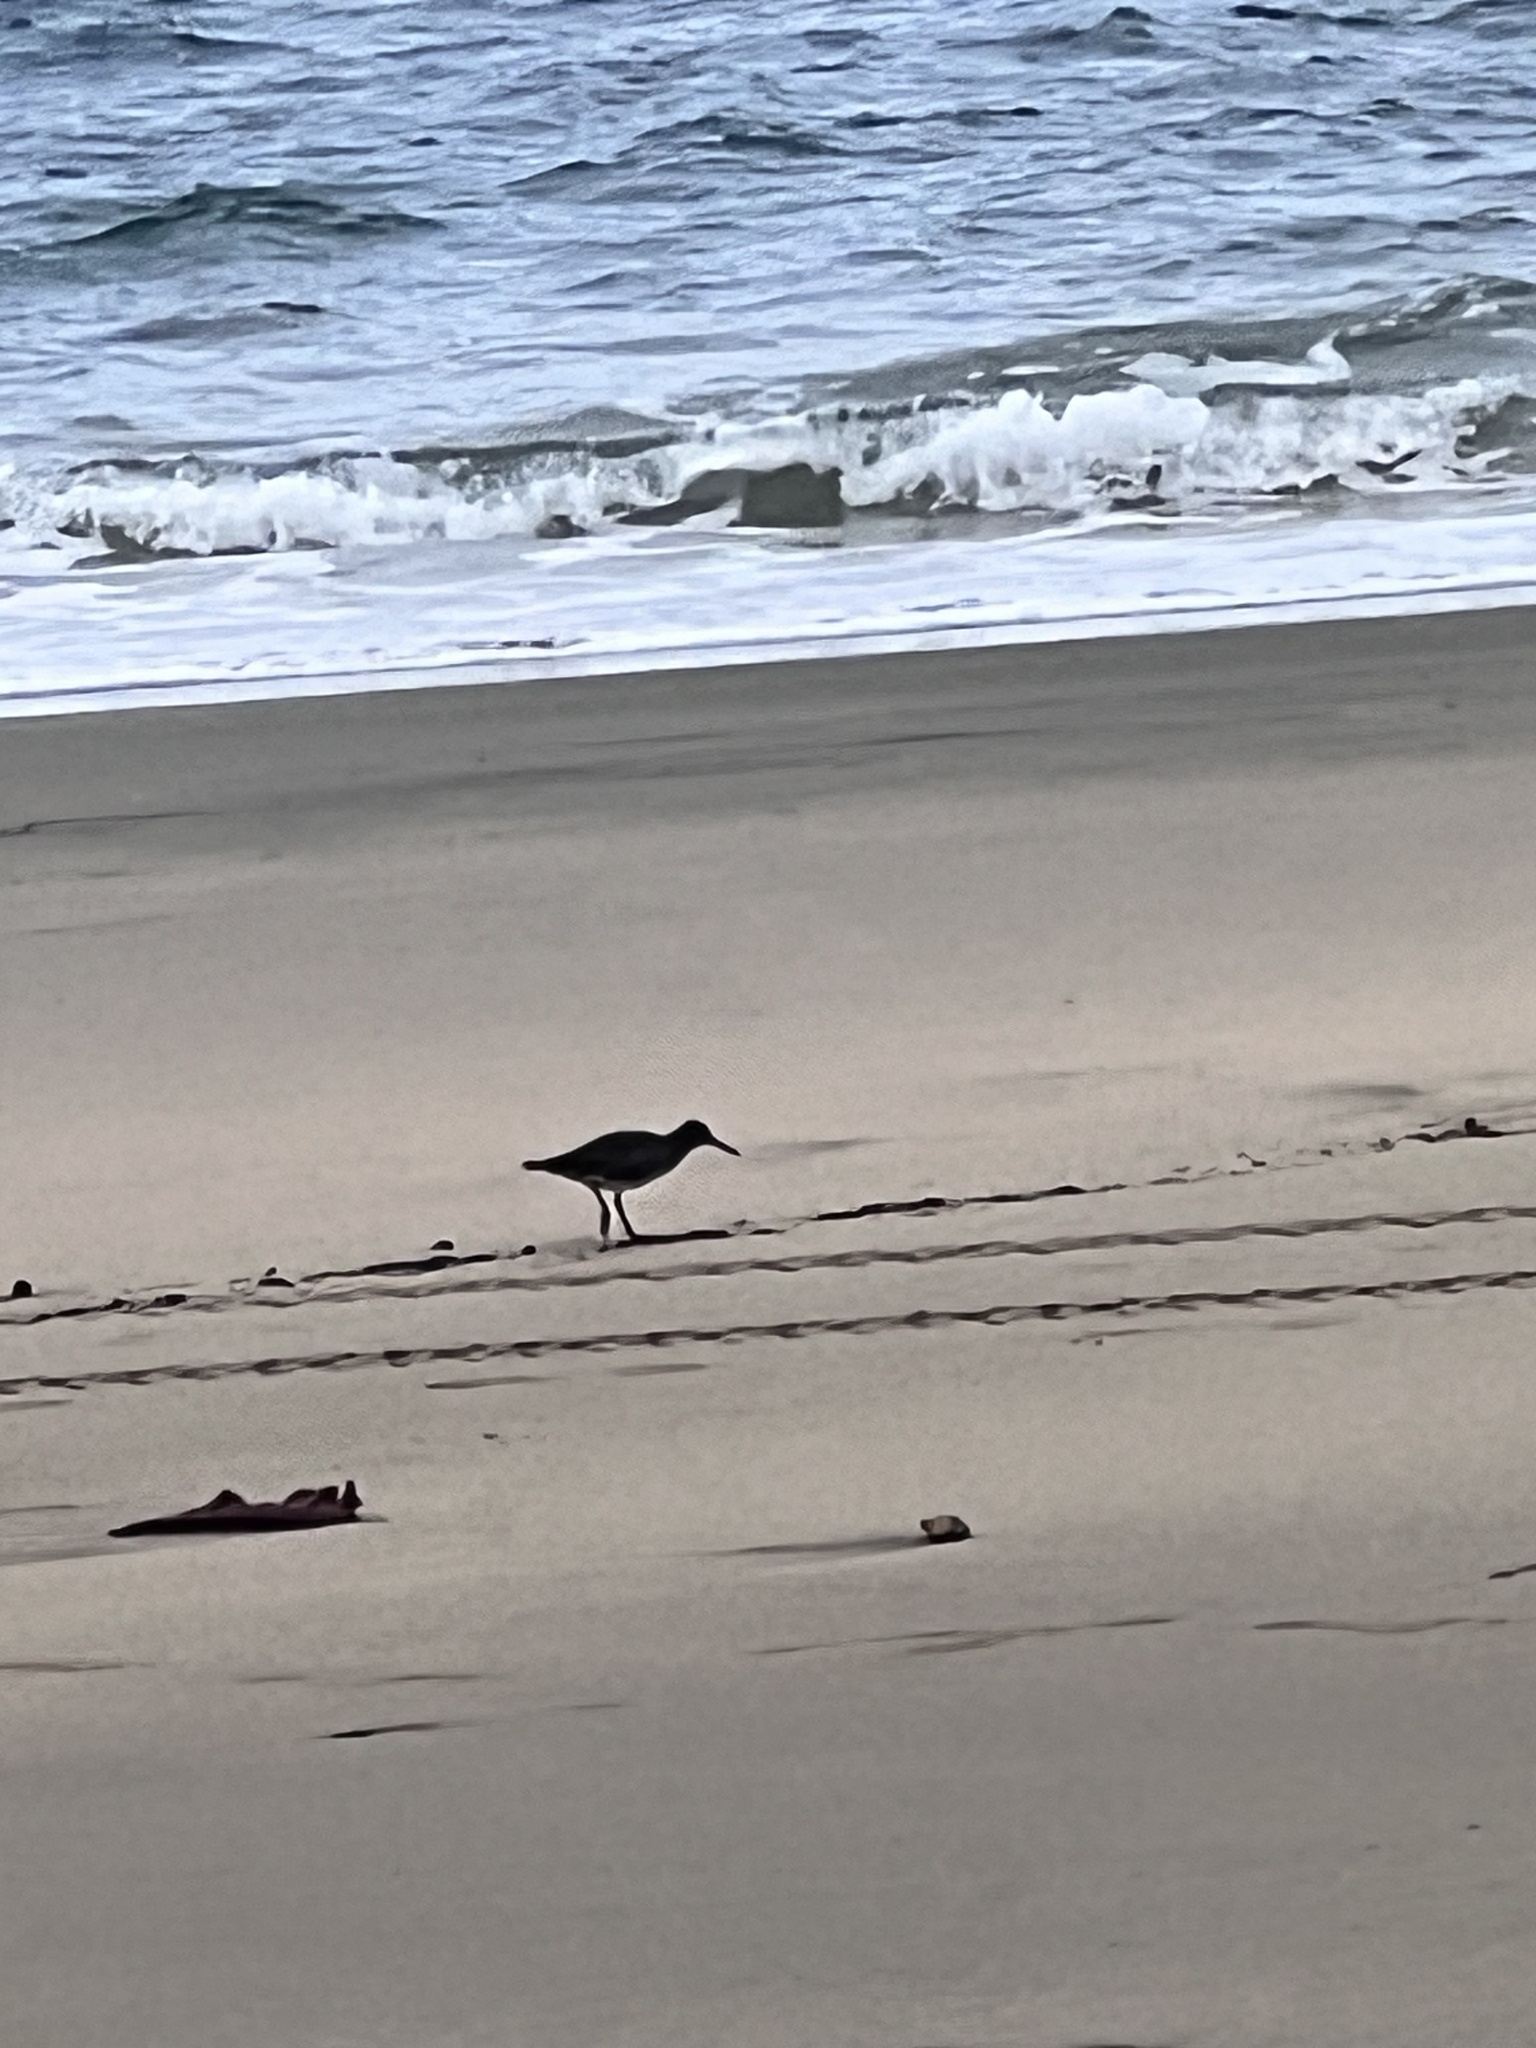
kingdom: Animalia
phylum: Chordata
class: Aves
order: Charadriiformes
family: Scolopacidae
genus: Tringa
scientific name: Tringa incana
